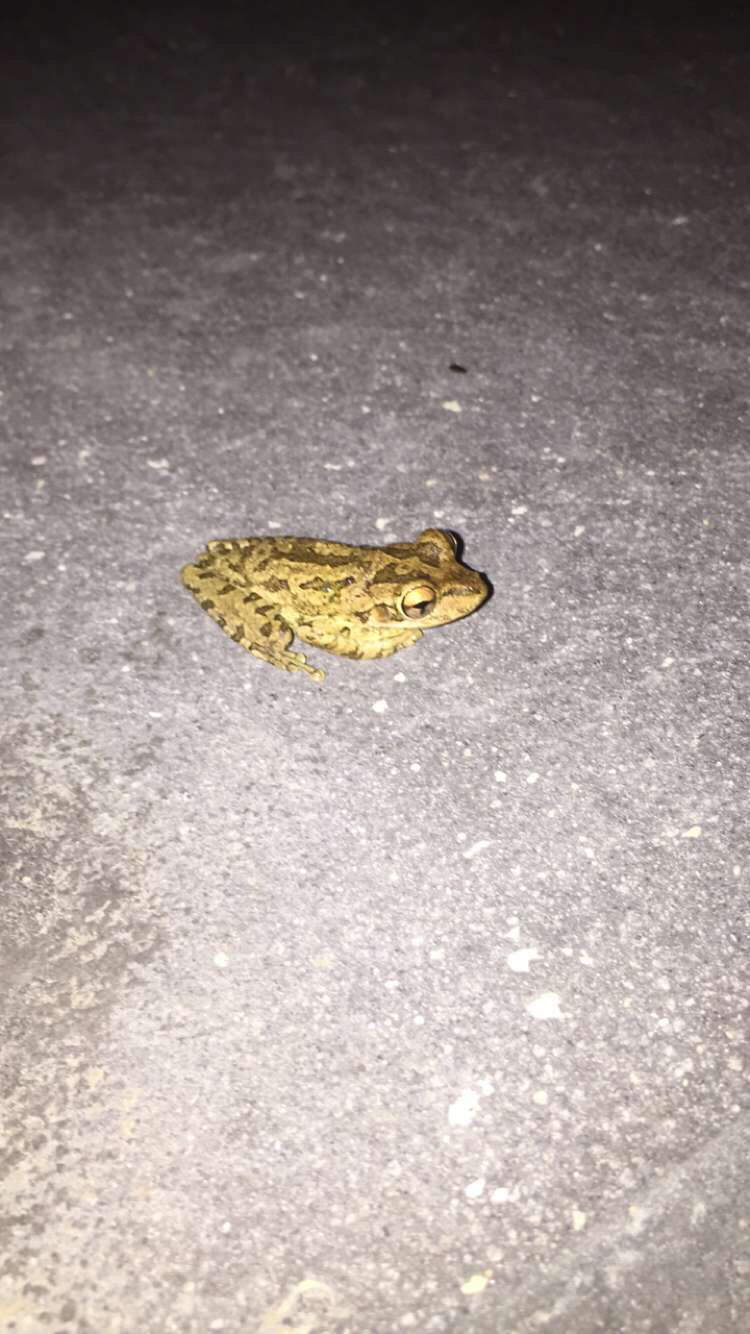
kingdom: Animalia
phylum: Chordata
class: Amphibia
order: Anura
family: Hylidae
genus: Osteopilus
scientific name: Osteopilus septentrionalis
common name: Cuban treefrog
